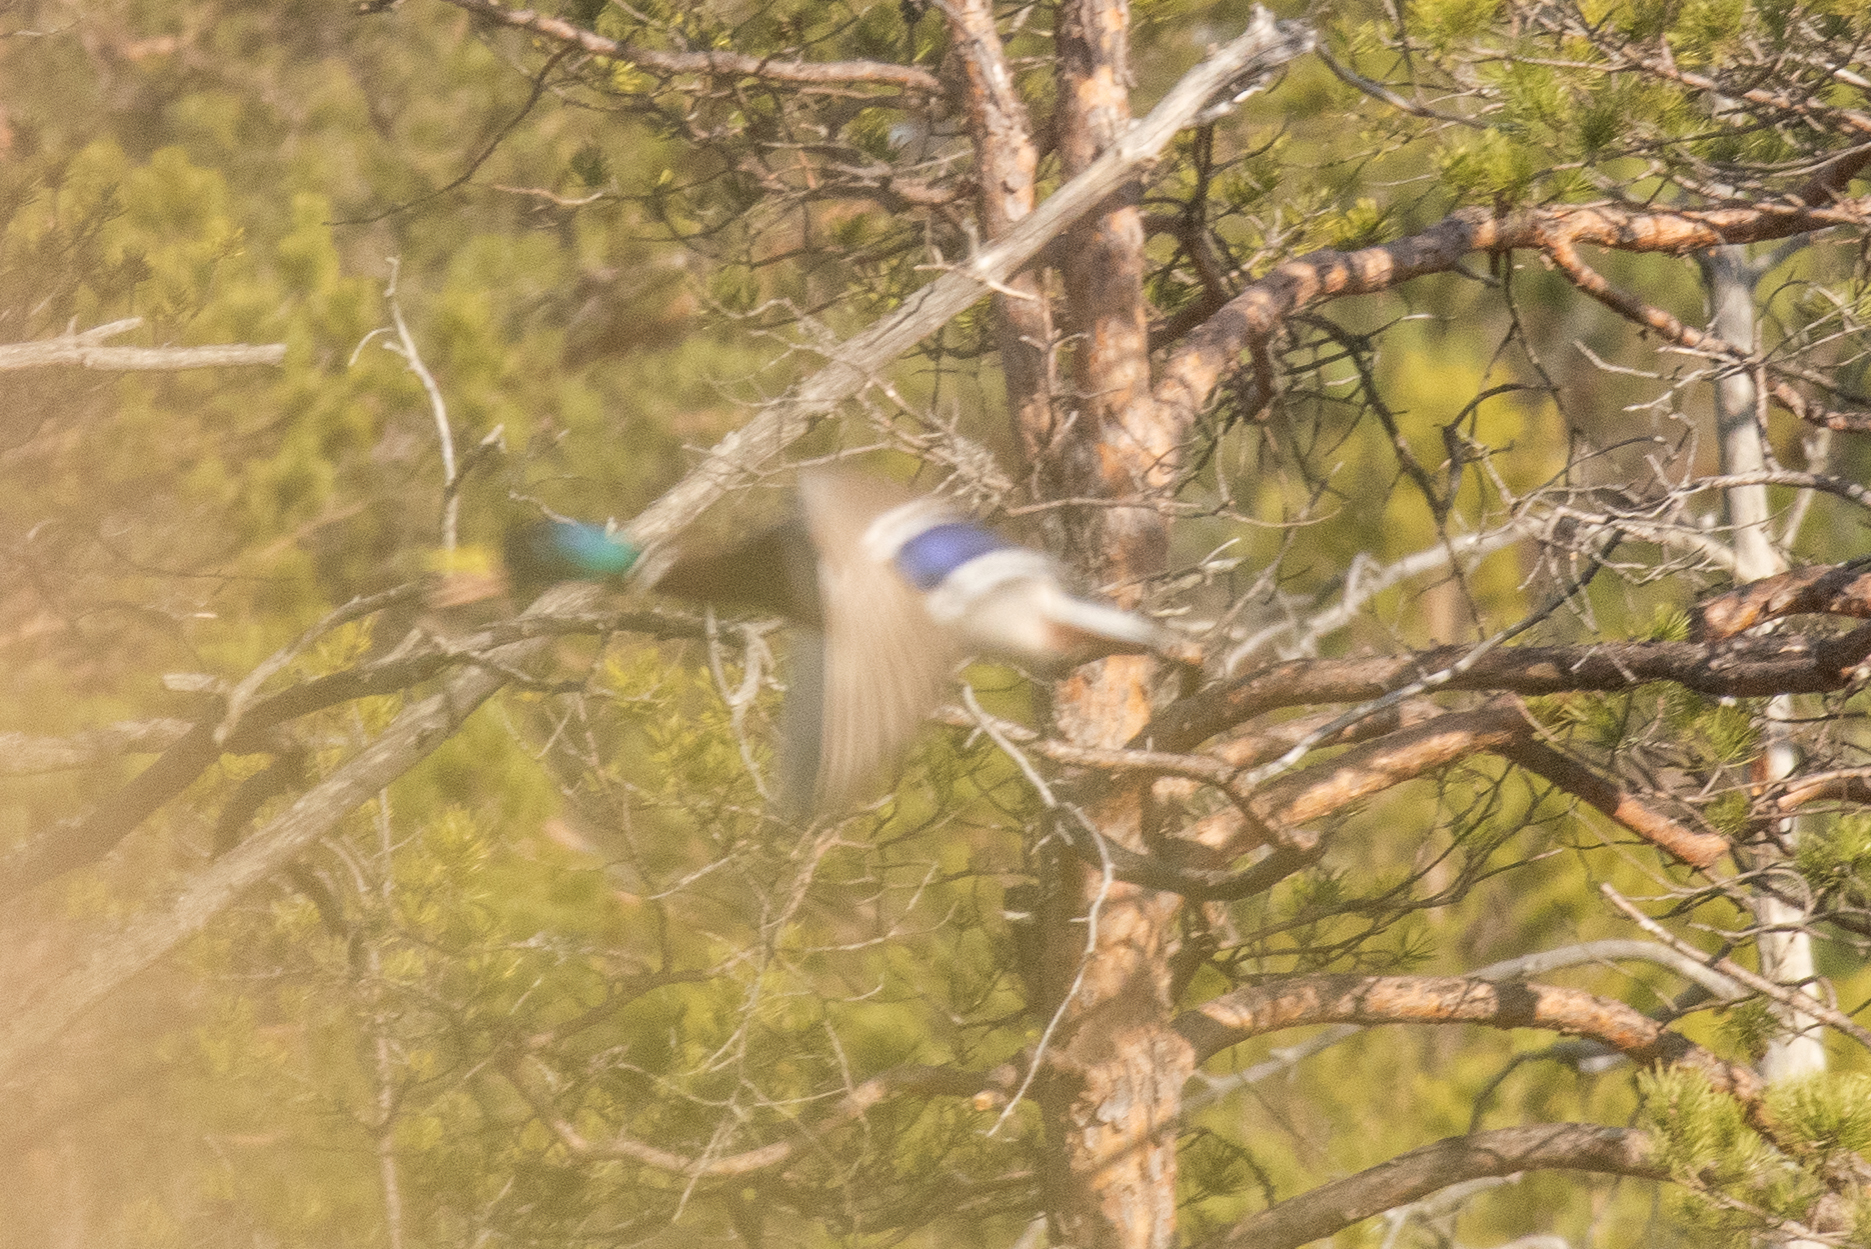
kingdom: Animalia
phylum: Chordata
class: Aves
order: Anseriformes
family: Anatidae
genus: Anas
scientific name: Anas platyrhynchos
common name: Mallard
